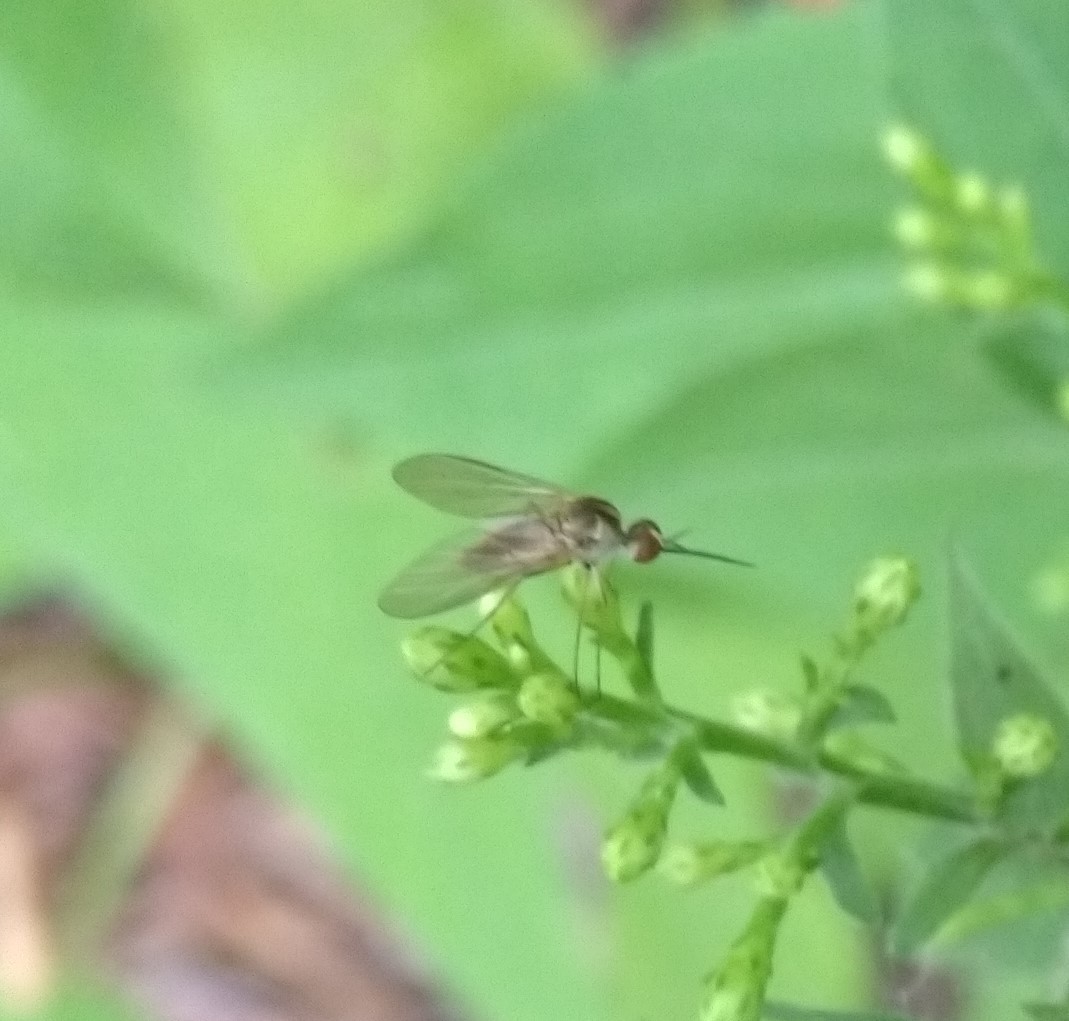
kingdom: Animalia
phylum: Arthropoda
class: Insecta
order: Diptera
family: Bombyliidae
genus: Geron
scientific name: Geron
